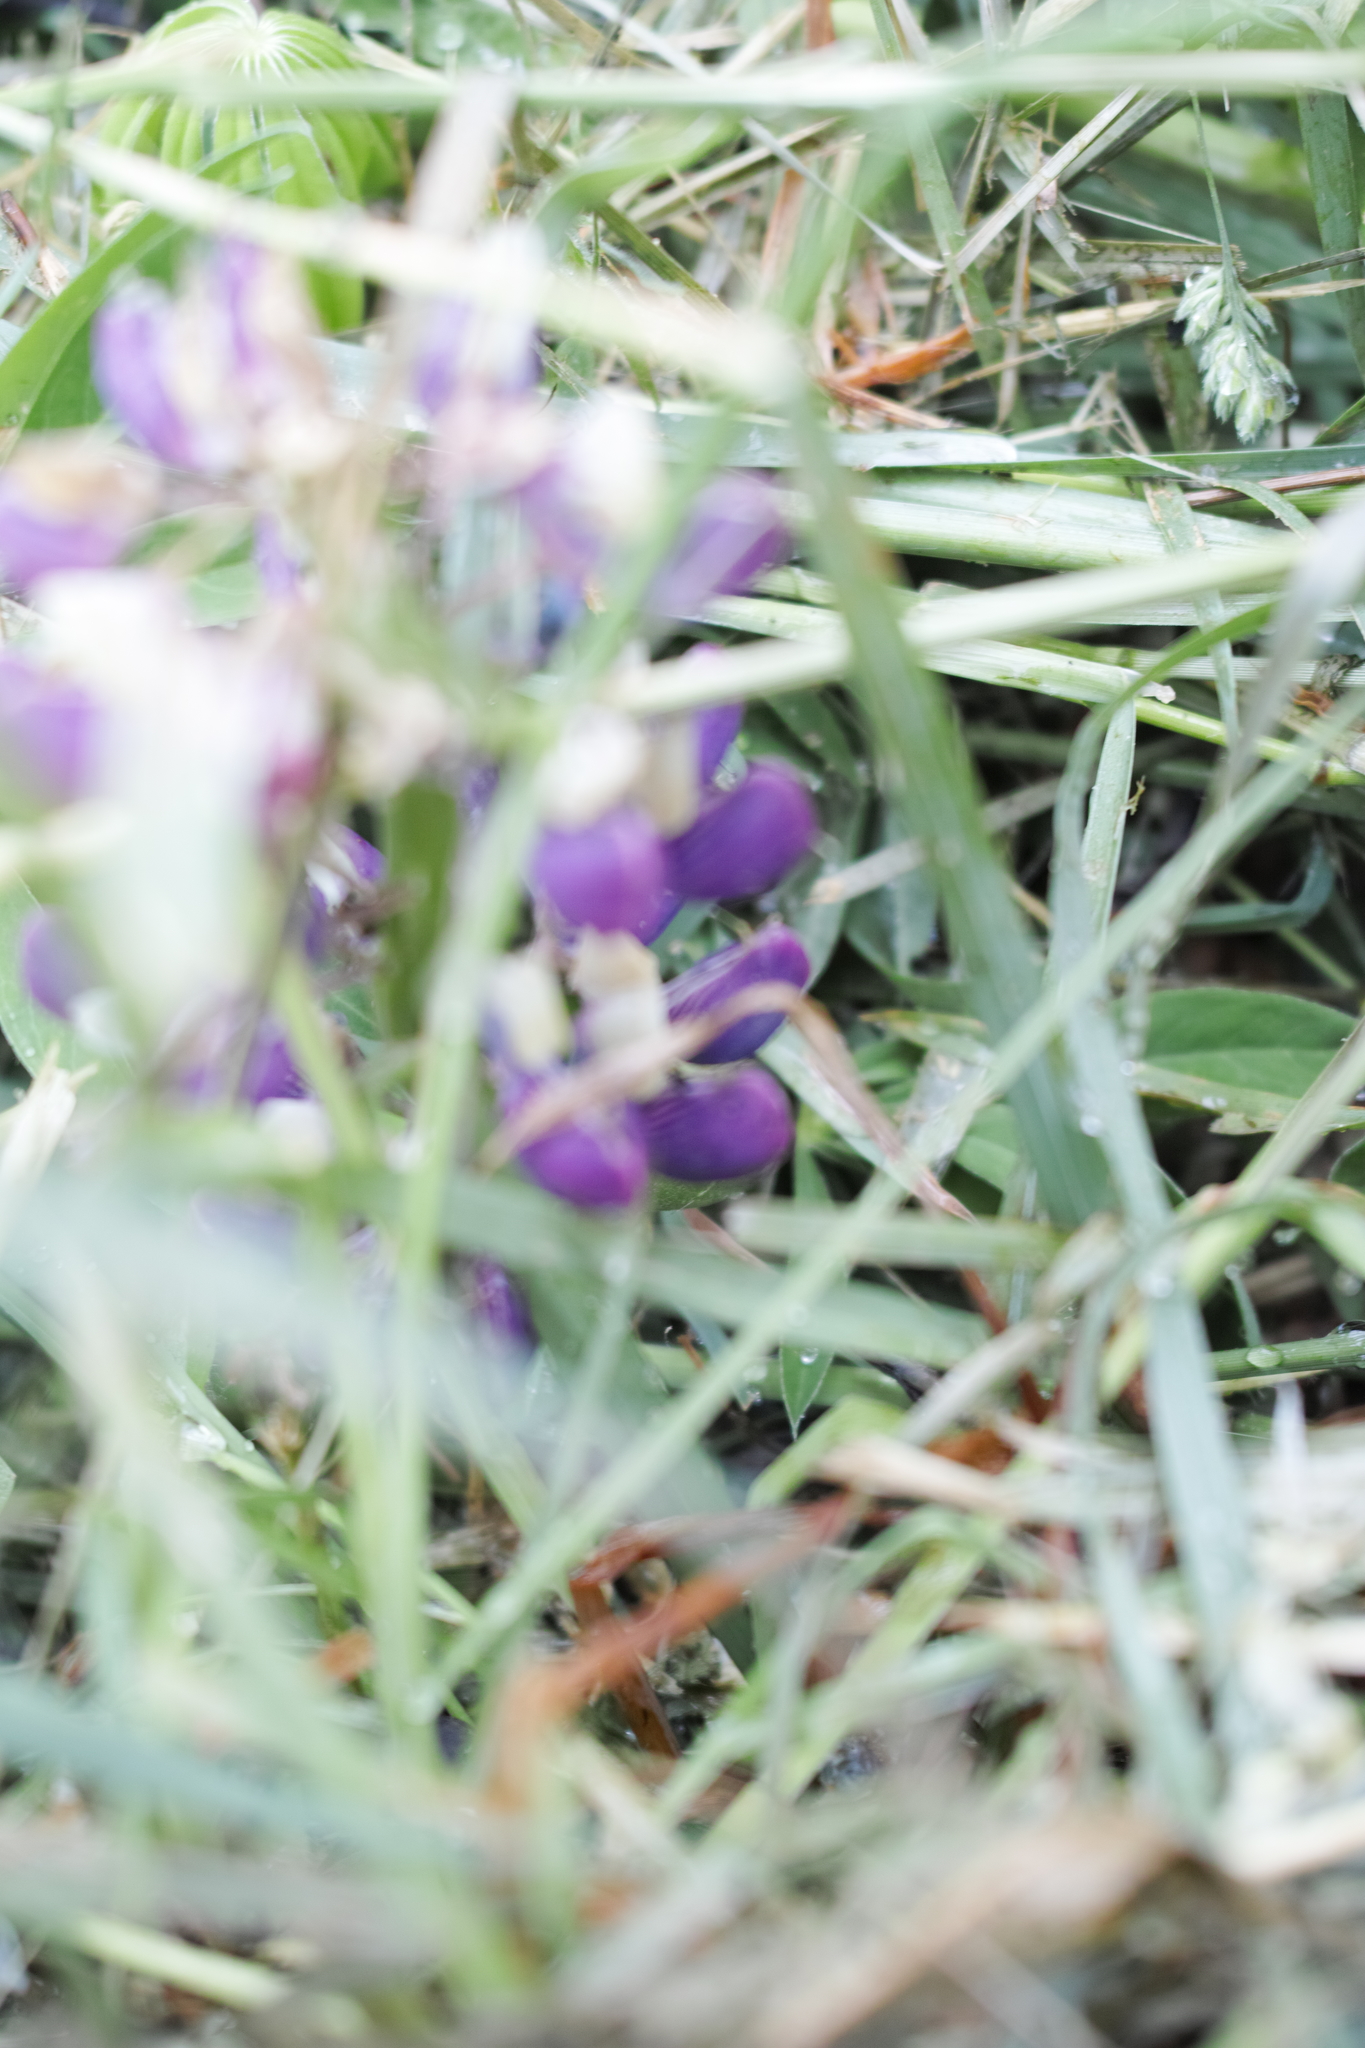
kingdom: Plantae
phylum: Tracheophyta
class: Magnoliopsida
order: Fabales
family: Fabaceae
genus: Lupinus
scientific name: Lupinus polyphyllus
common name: Garden lupin
